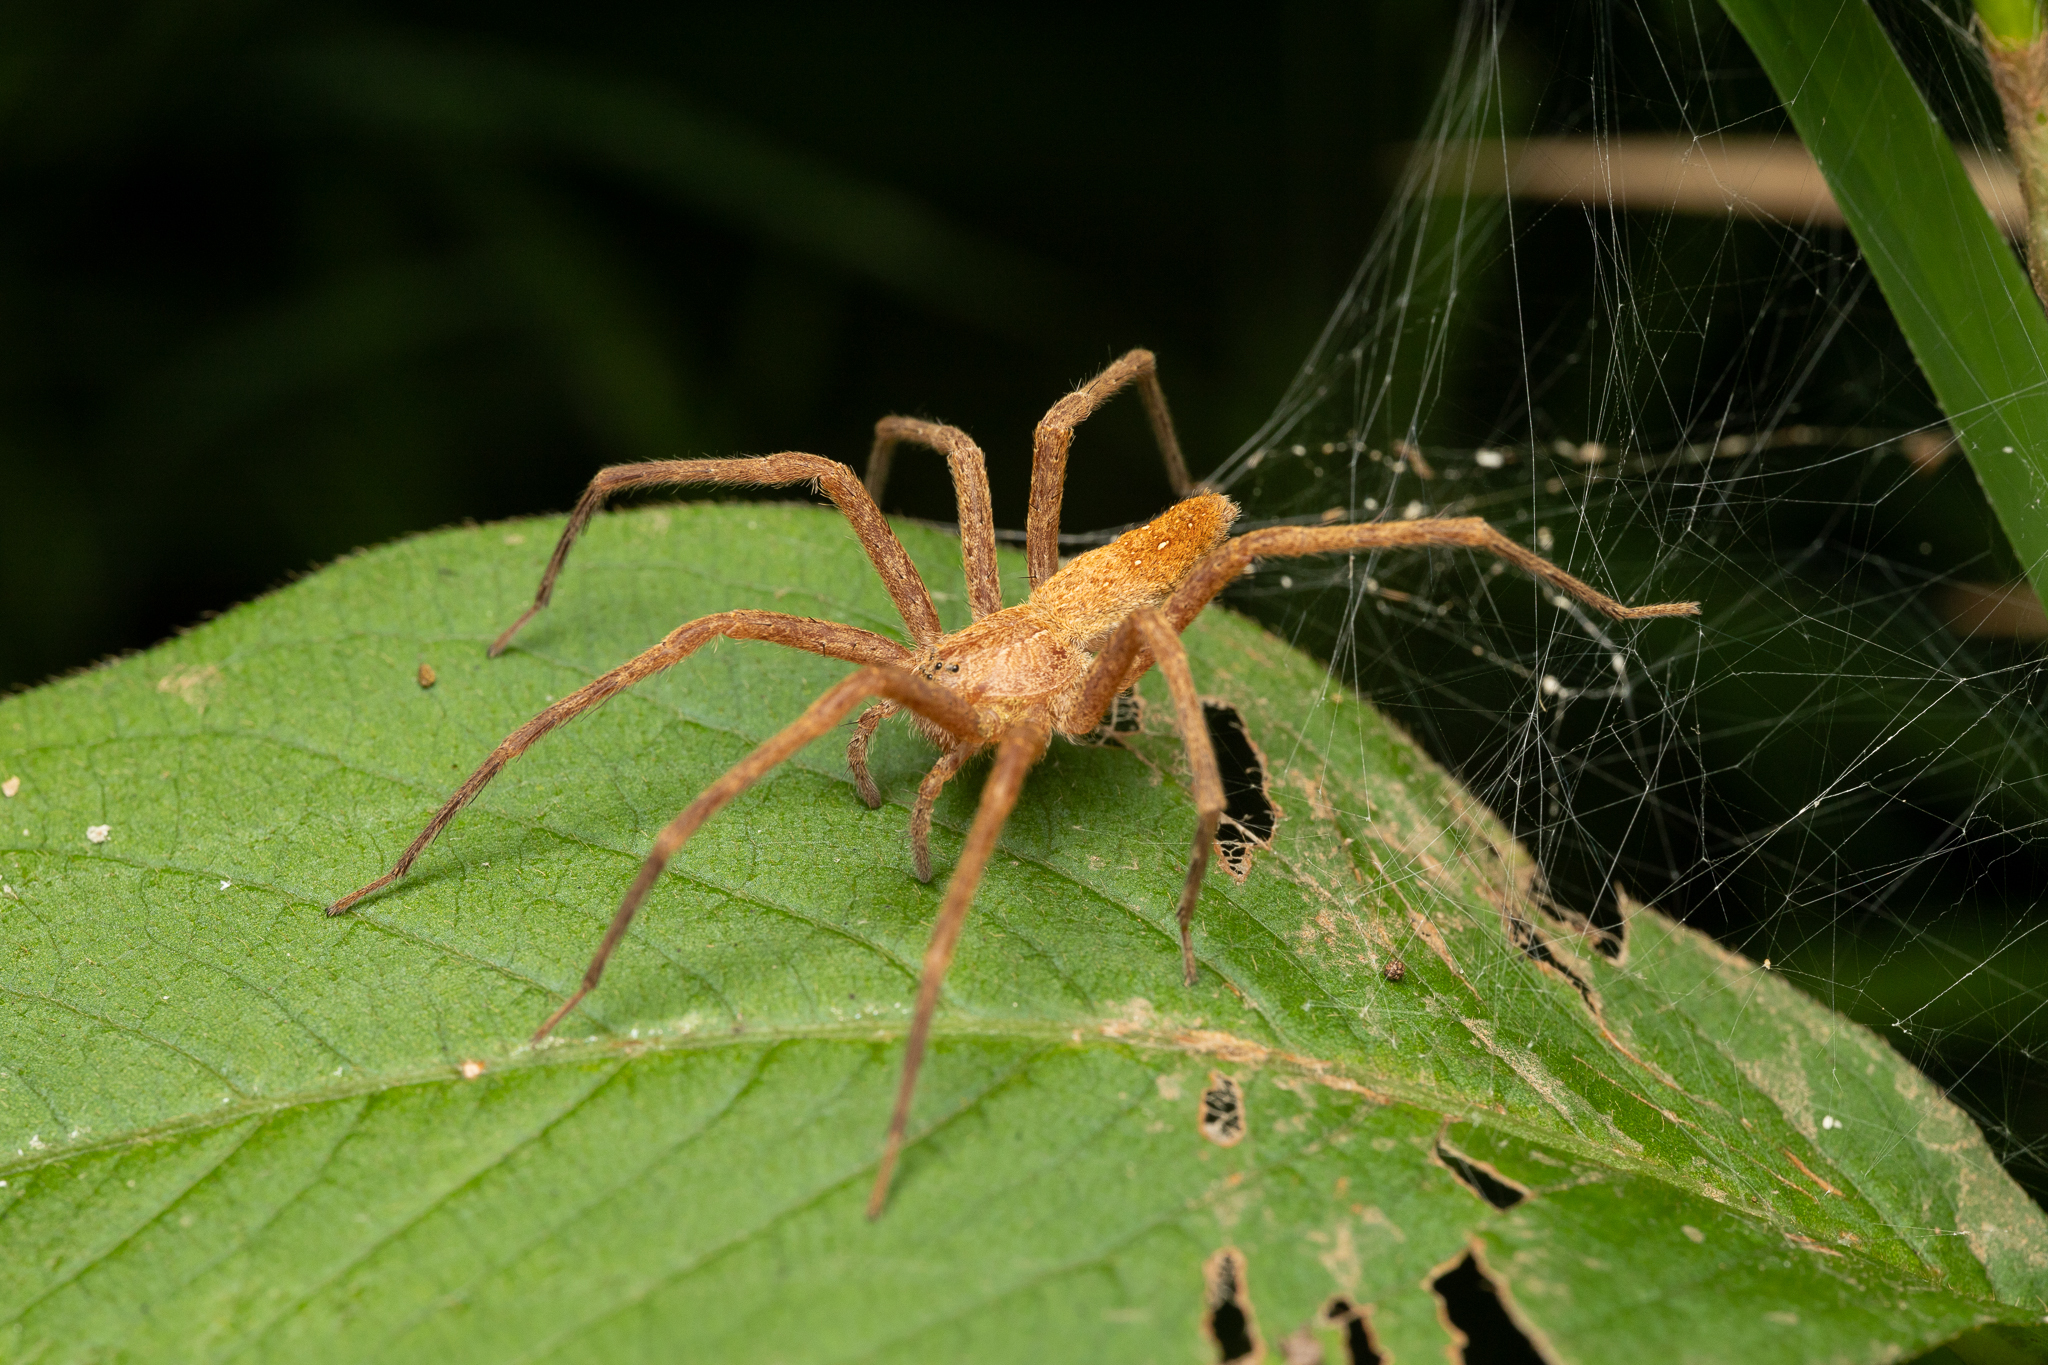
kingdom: Animalia
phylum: Arthropoda
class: Arachnida
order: Araneae
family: Pisauridae
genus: Pisaurina
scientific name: Pisaurina mira
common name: American nursery web spider
